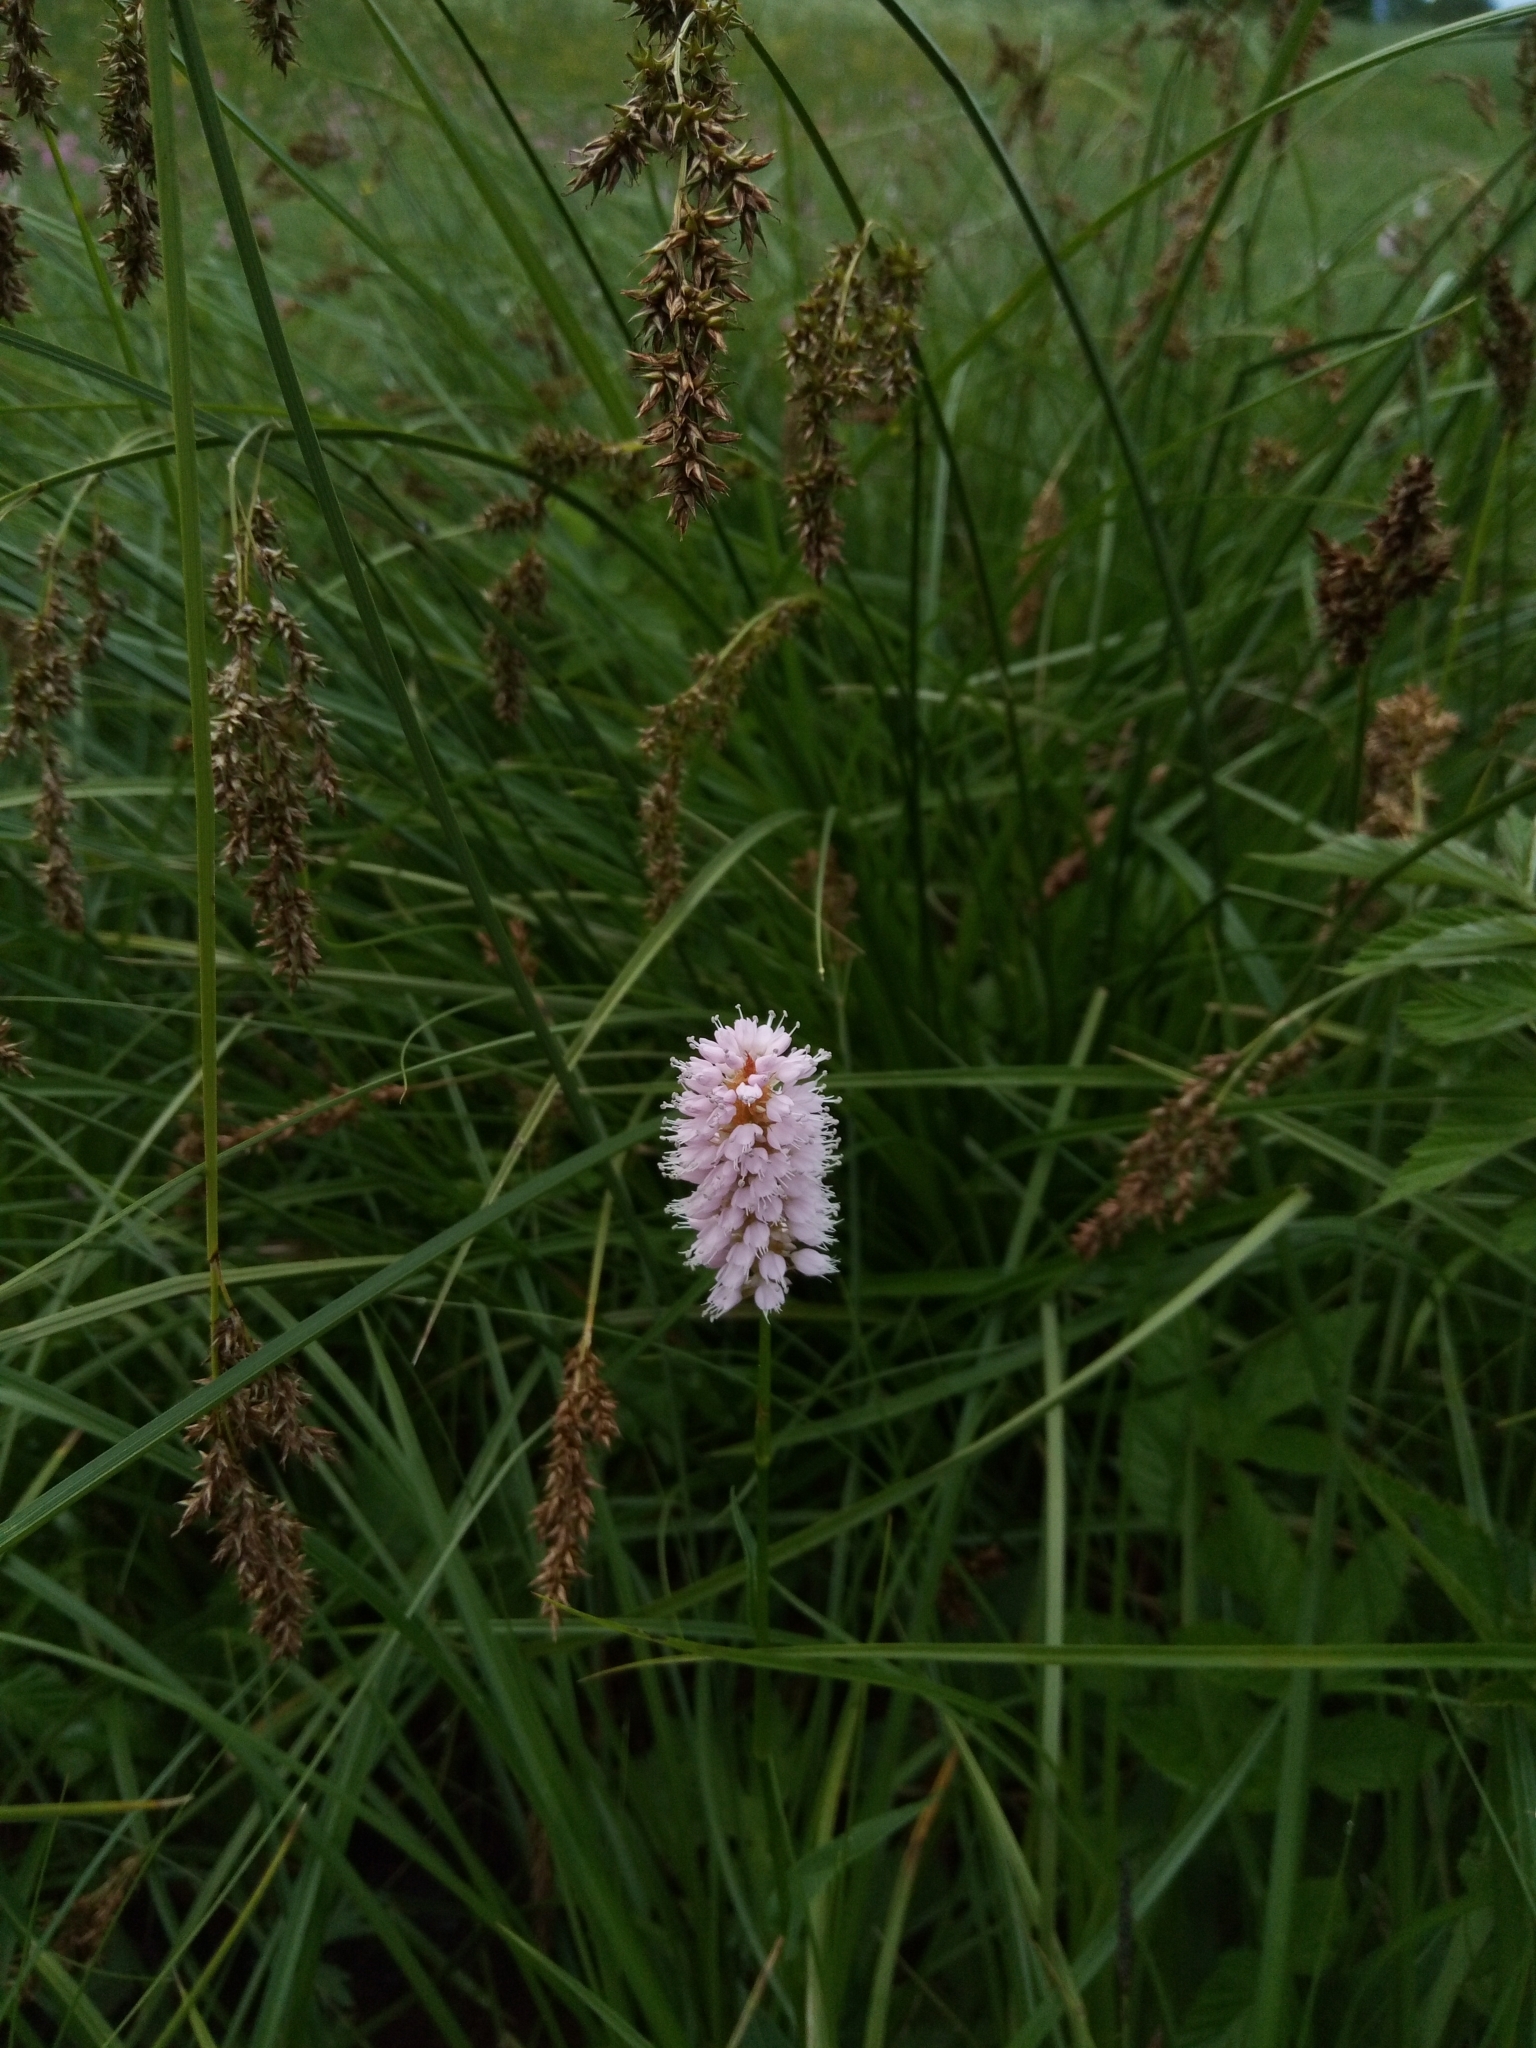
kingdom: Plantae
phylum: Tracheophyta
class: Magnoliopsida
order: Caryophyllales
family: Polygonaceae
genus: Bistorta
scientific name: Bistorta officinalis
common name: Common bistort
